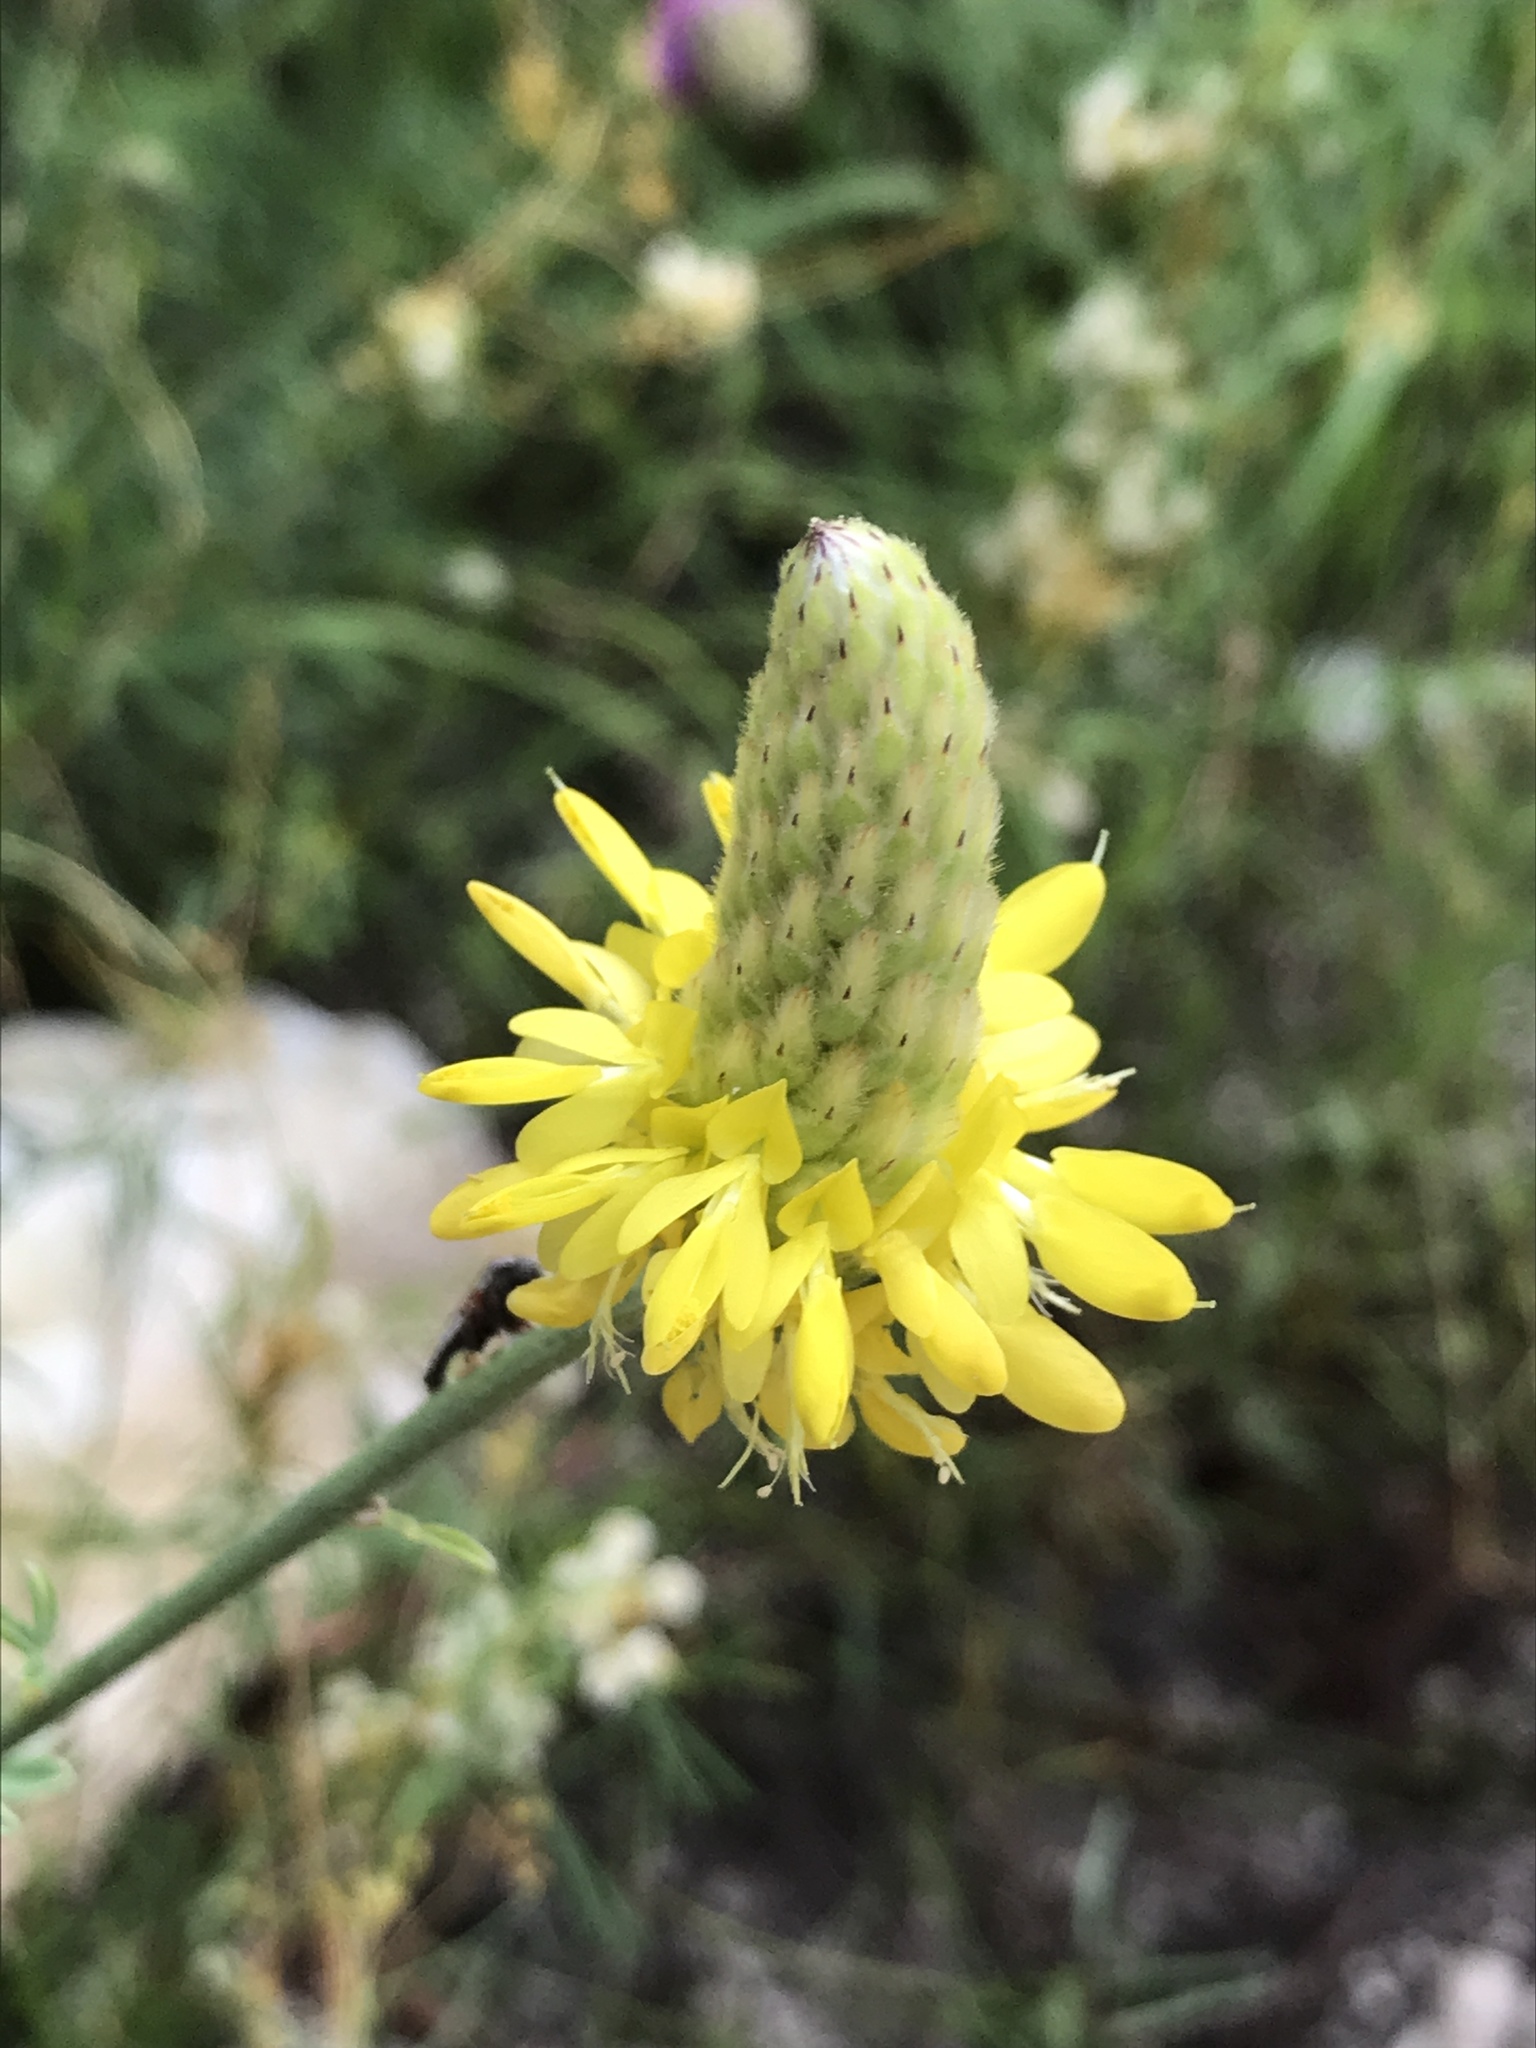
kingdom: Plantae
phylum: Tracheophyta
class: Magnoliopsida
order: Fabales
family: Fabaceae
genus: Dalea
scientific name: Dalea aurea
